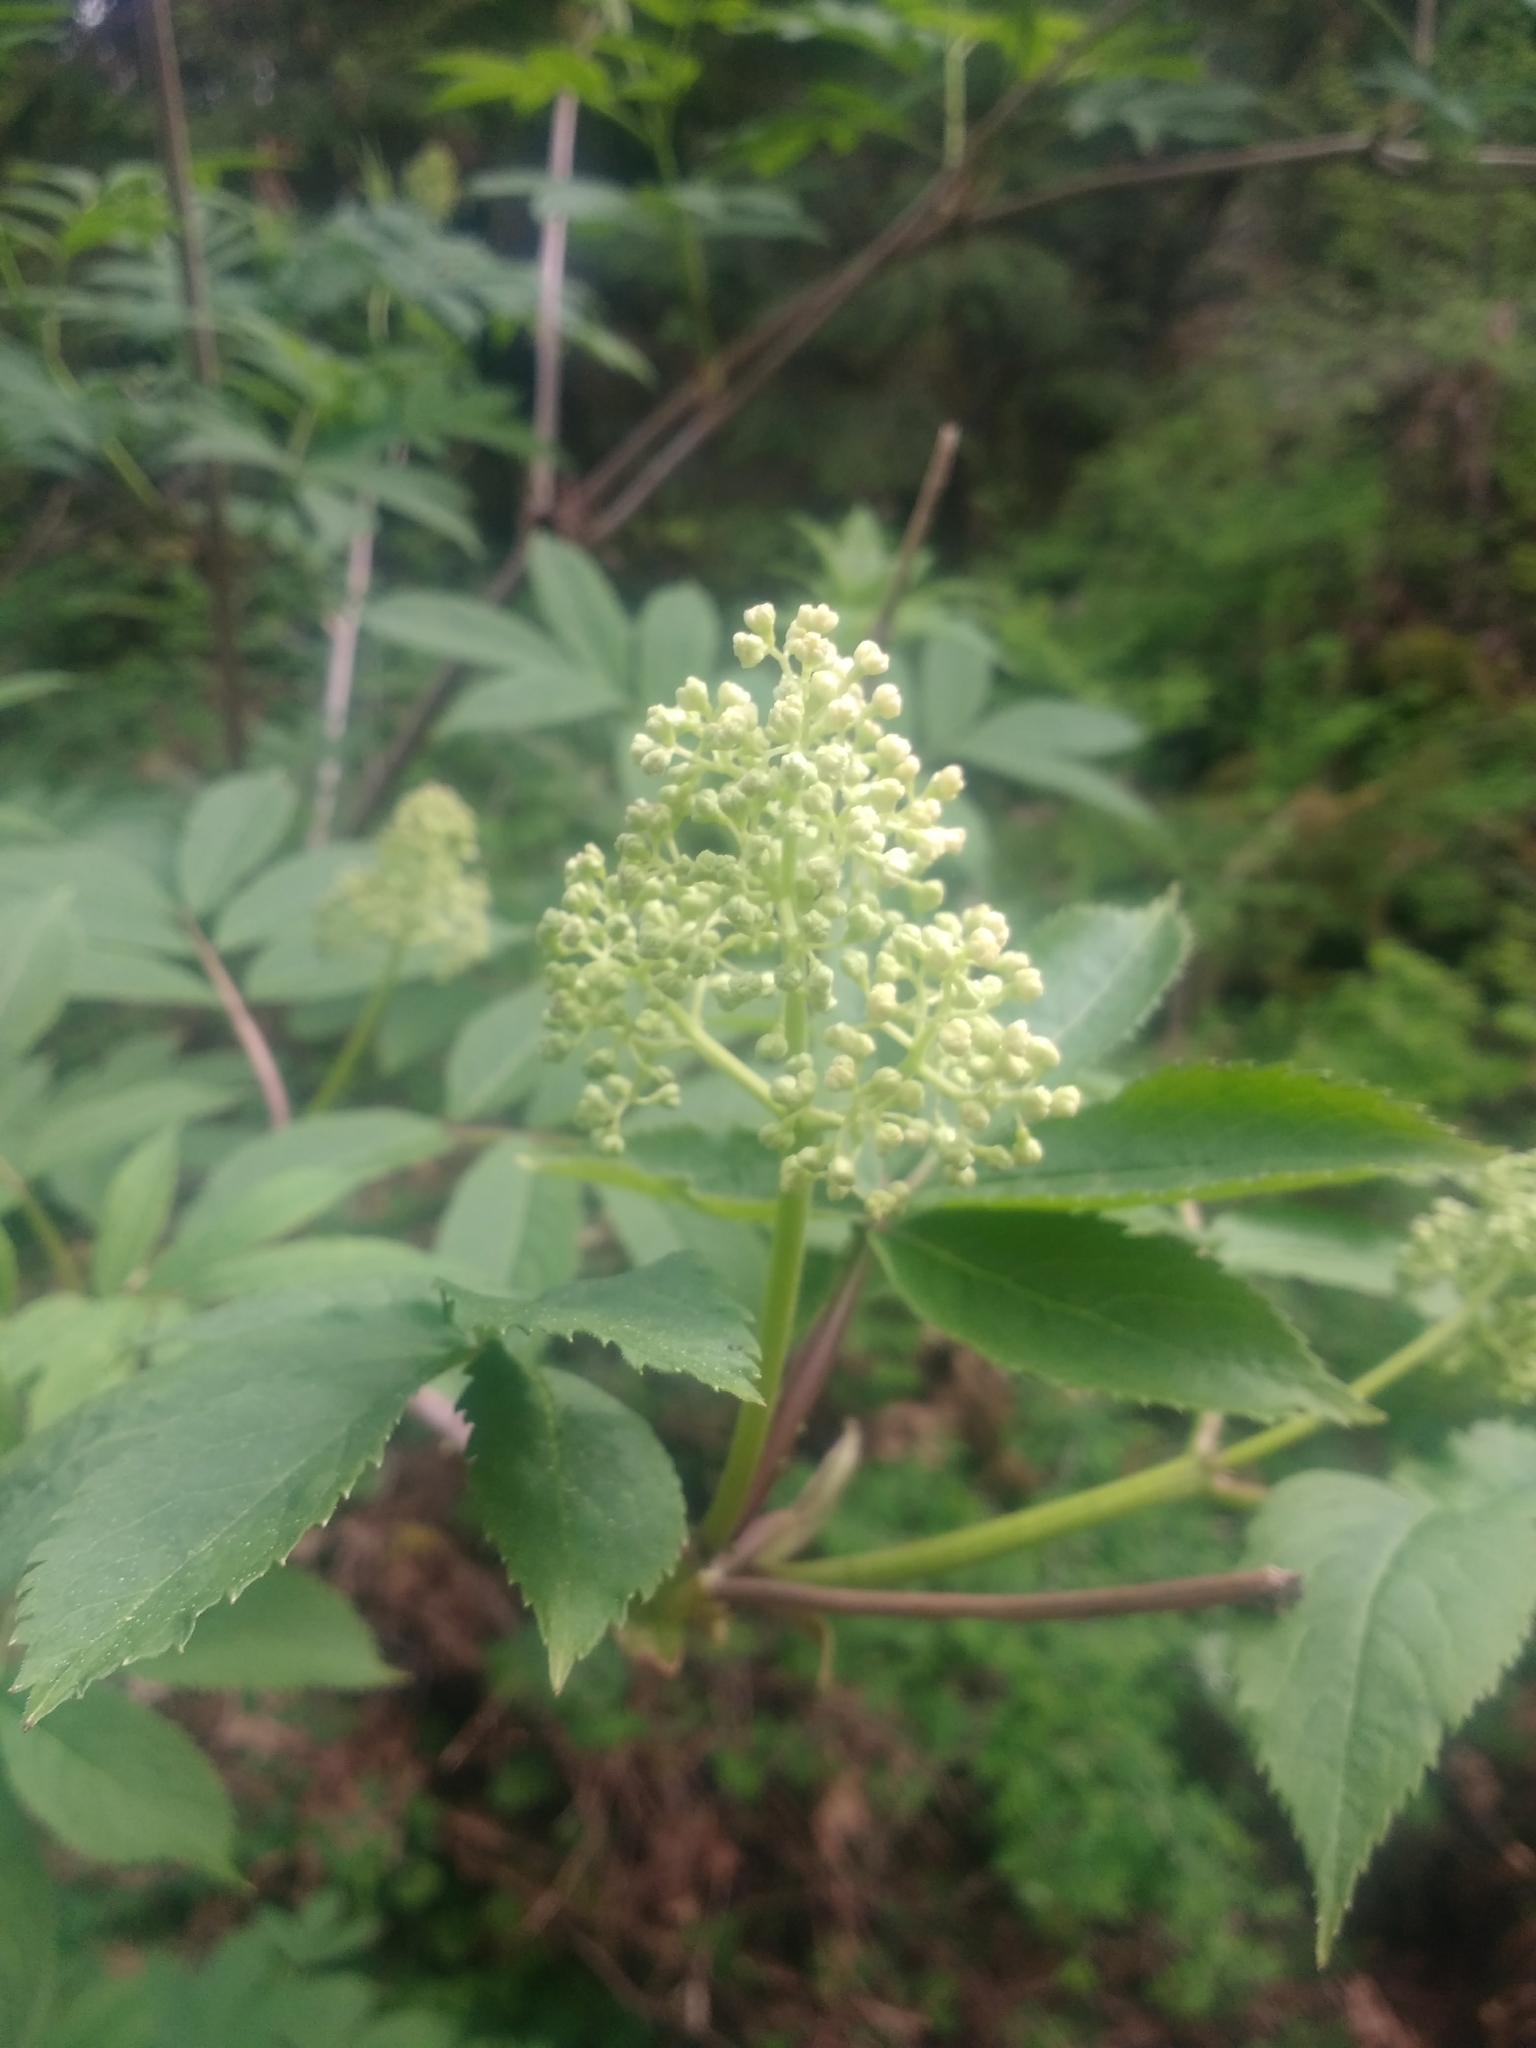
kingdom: Plantae
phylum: Tracheophyta
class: Magnoliopsida
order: Dipsacales
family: Viburnaceae
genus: Sambucus
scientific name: Sambucus racemosa
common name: Red-berried elder
